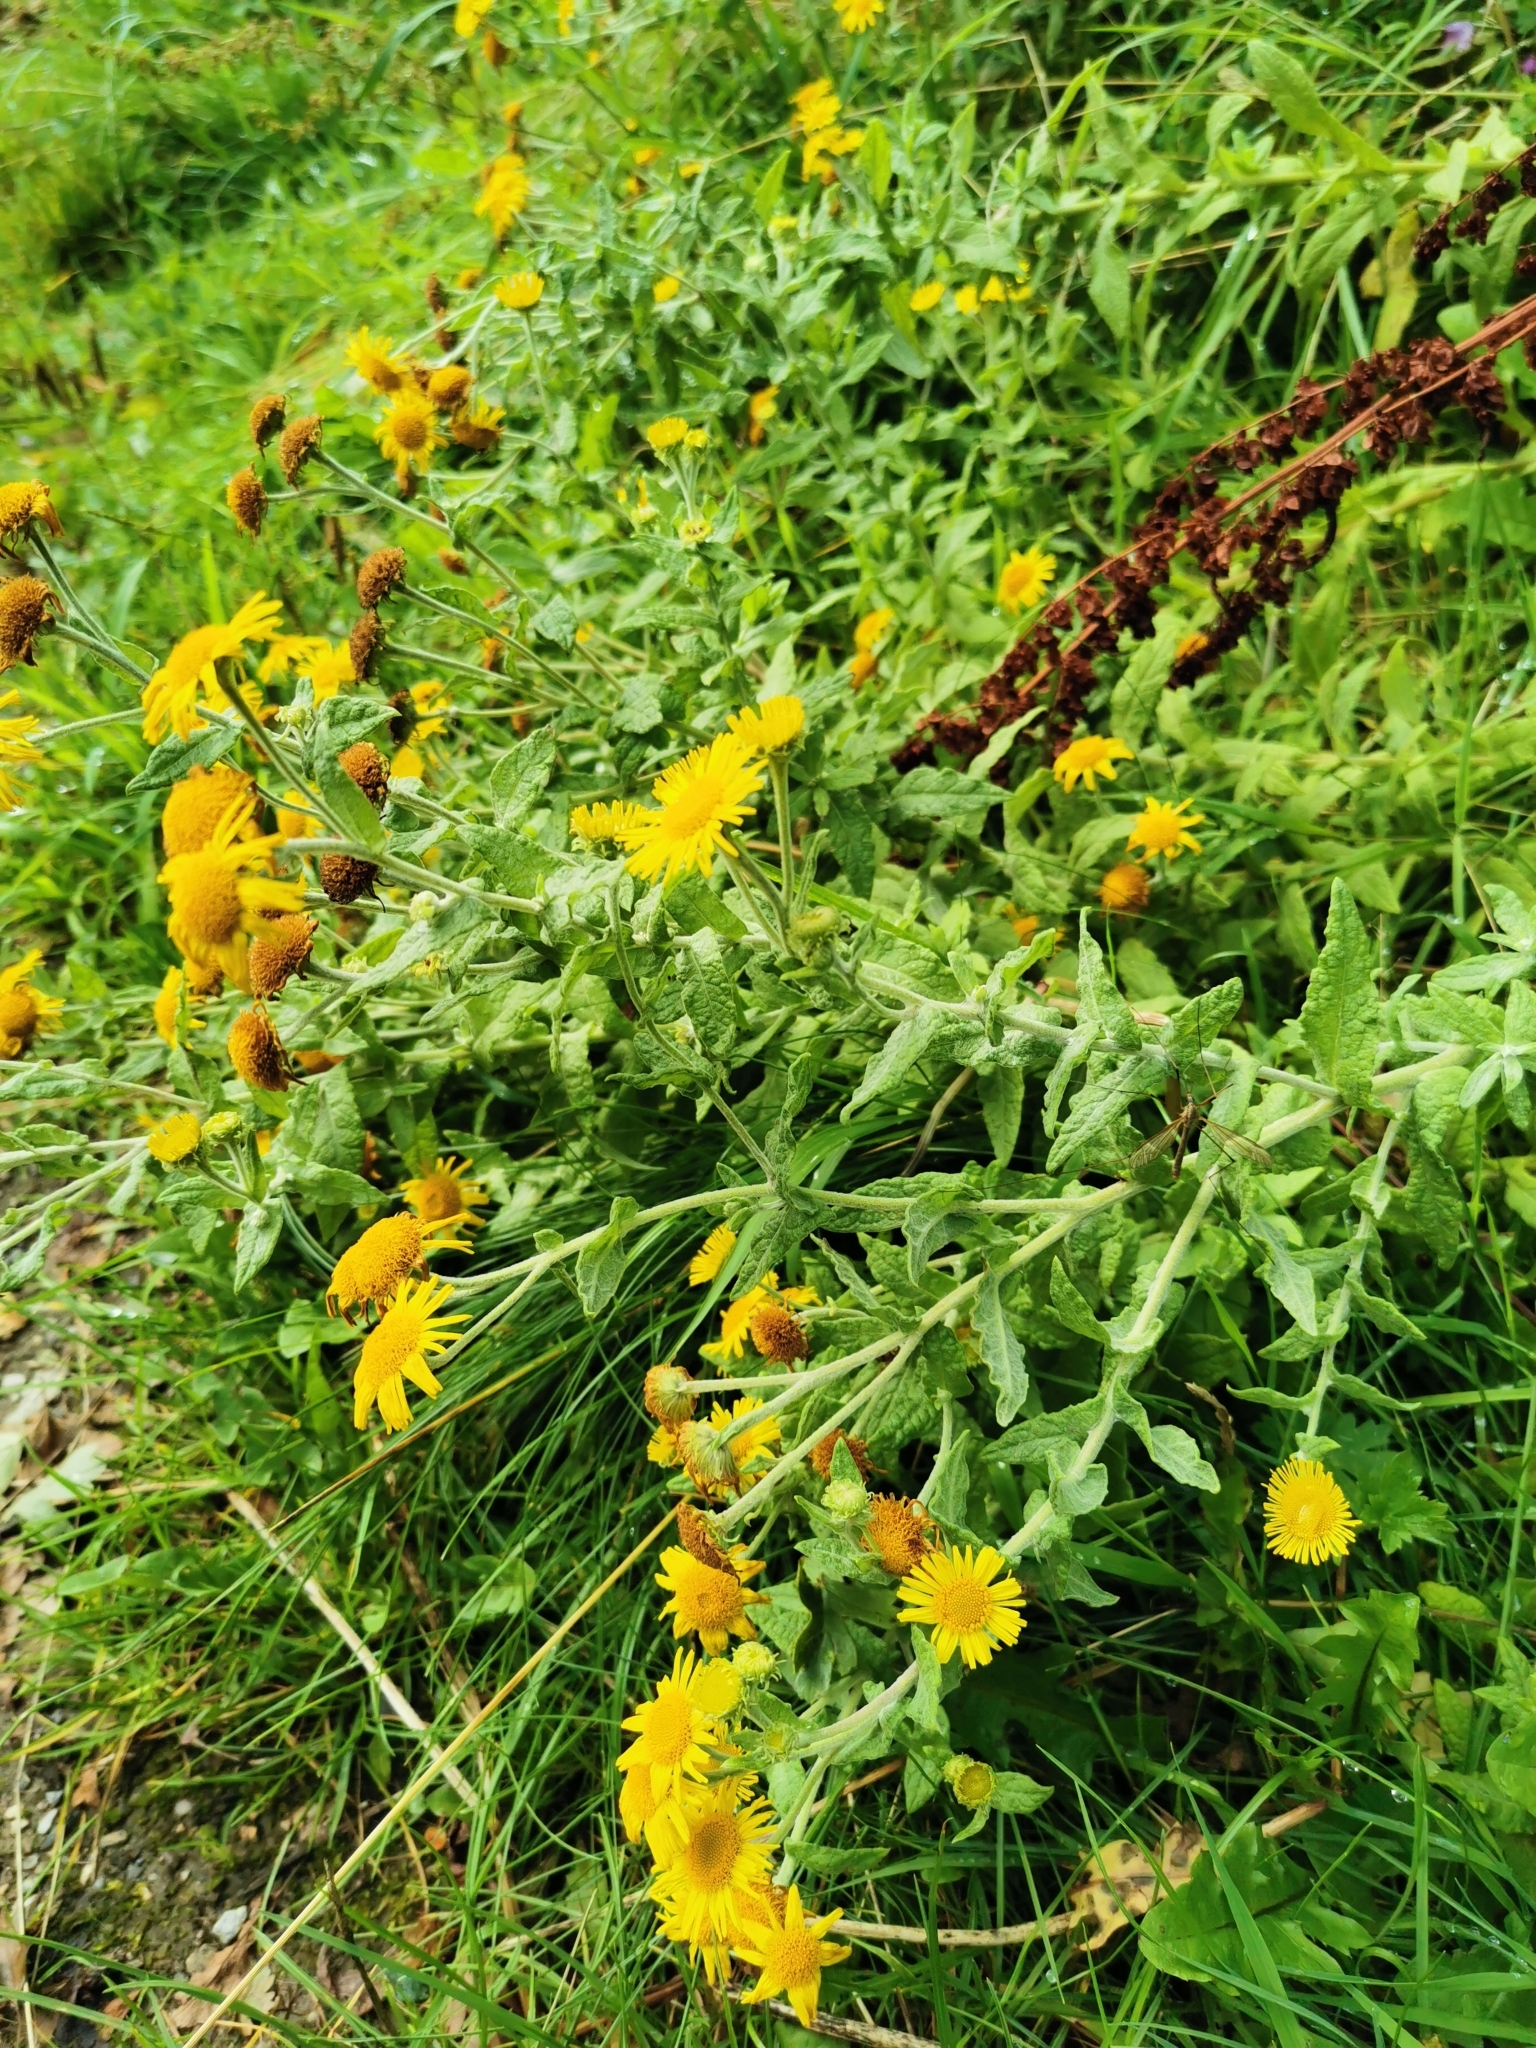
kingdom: Plantae
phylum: Tracheophyta
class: Magnoliopsida
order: Asterales
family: Asteraceae
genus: Pulicaria
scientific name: Pulicaria dysenterica
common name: Common fleabane
